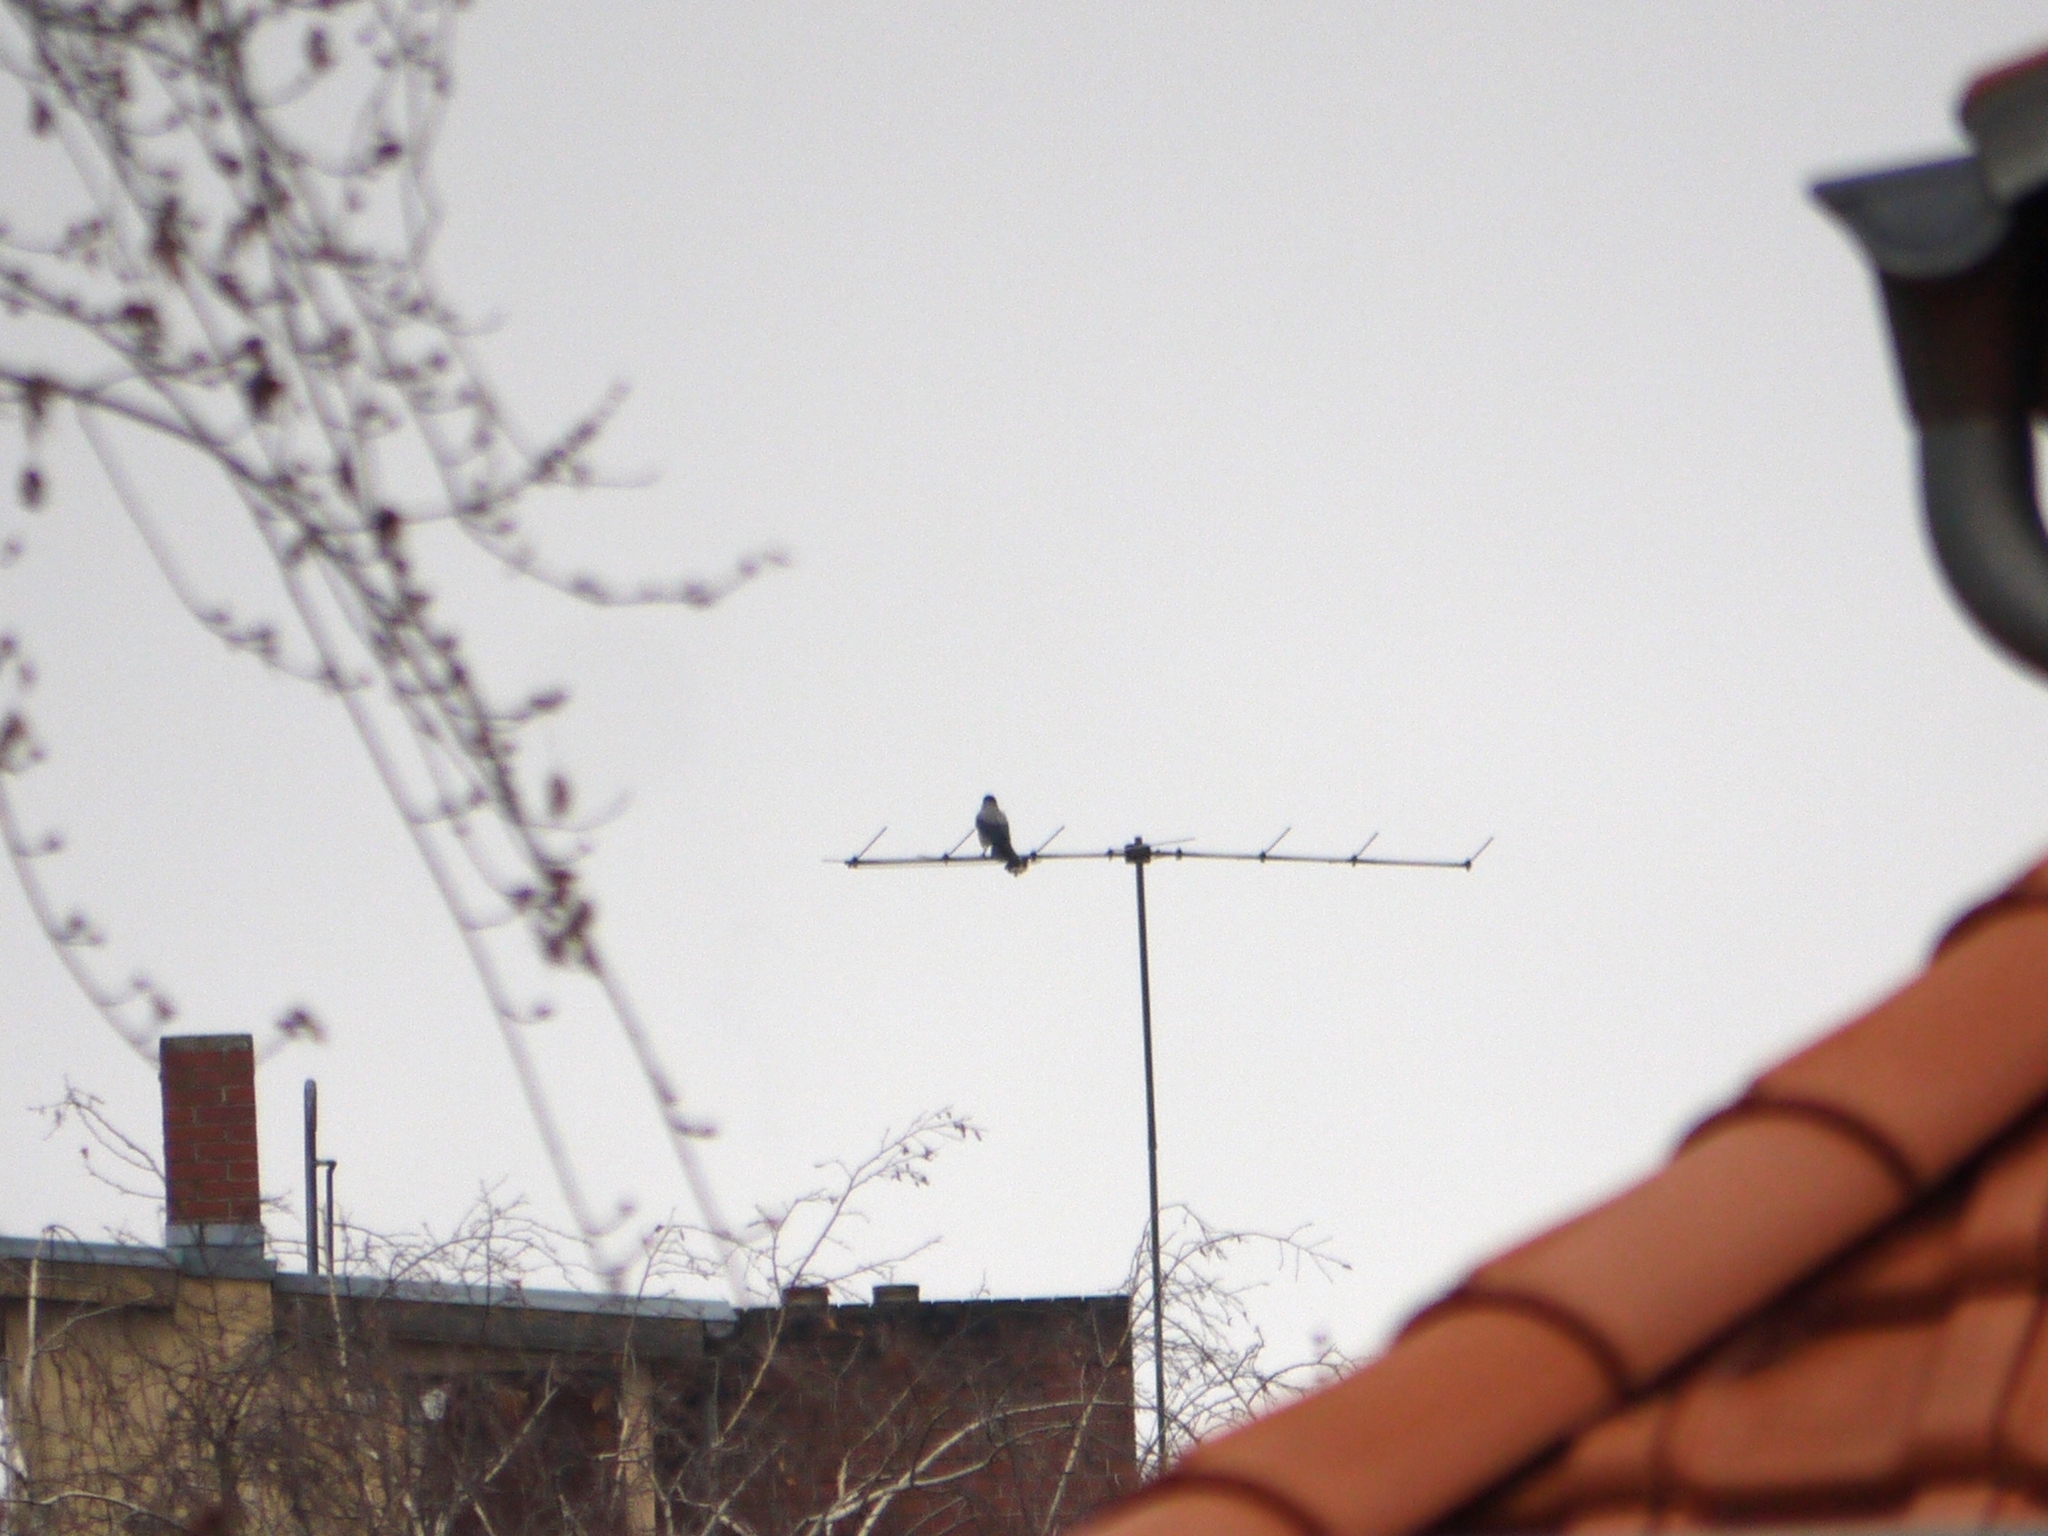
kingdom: Animalia
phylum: Chordata
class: Aves
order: Passeriformes
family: Corvidae
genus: Corvus
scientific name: Corvus cornix
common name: Hooded crow
